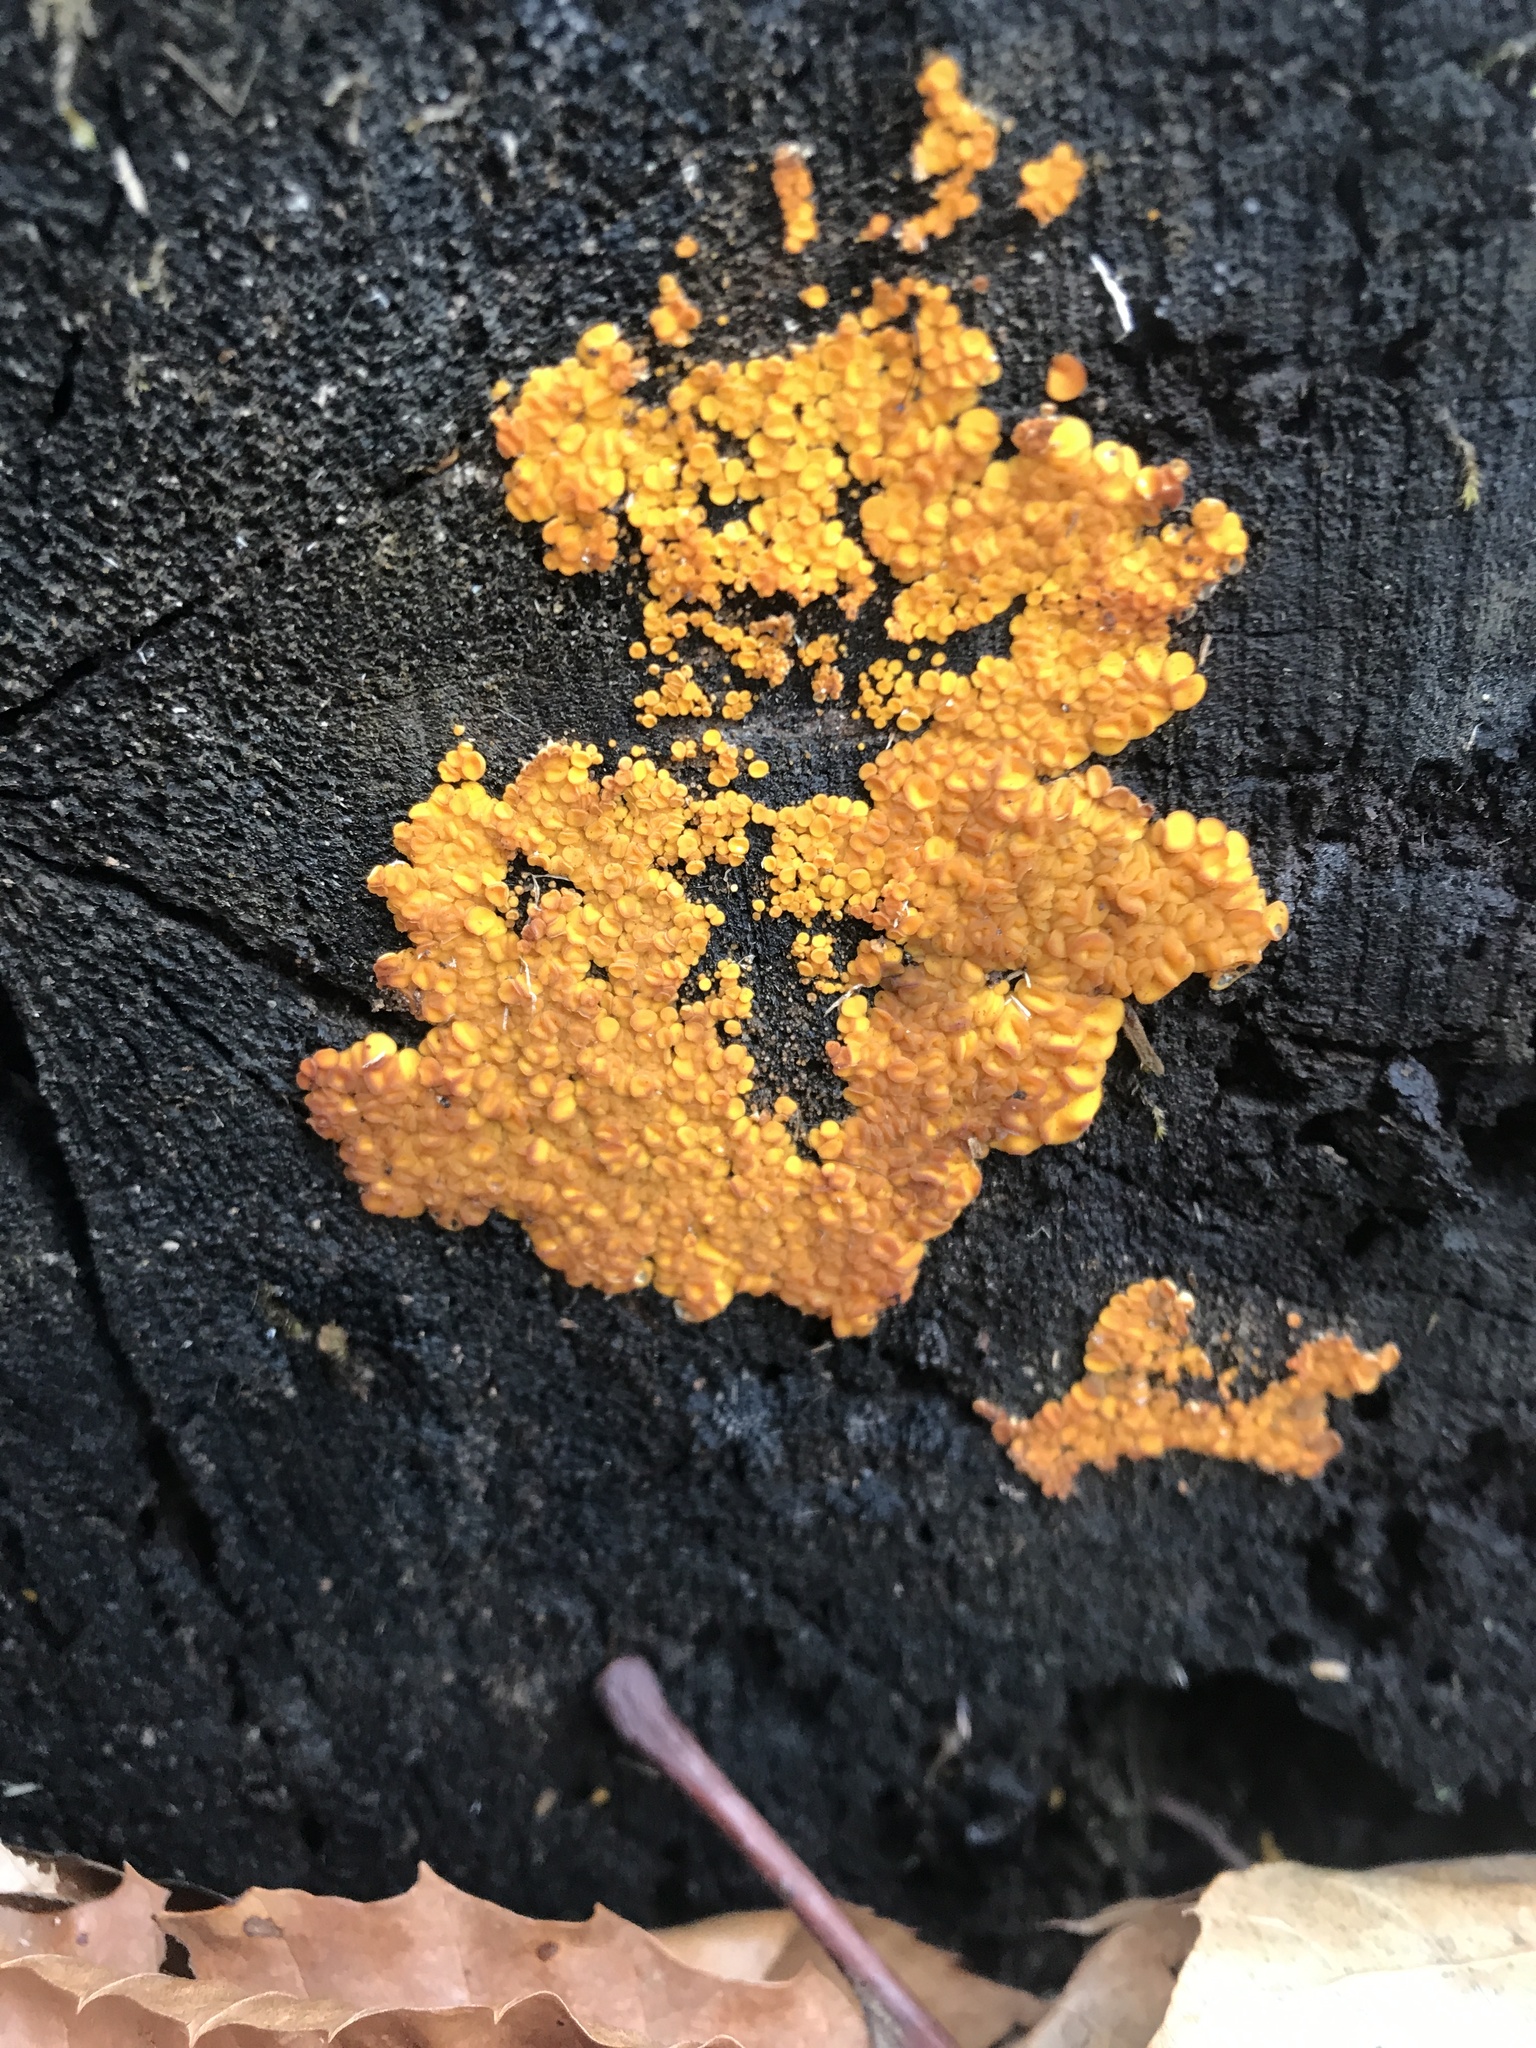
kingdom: Fungi
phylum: Basidiomycota
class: Agaricomycetes
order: Polyporales
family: Meruliaceae
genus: Phlebia
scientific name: Phlebia radiata
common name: Wrinkled crust
